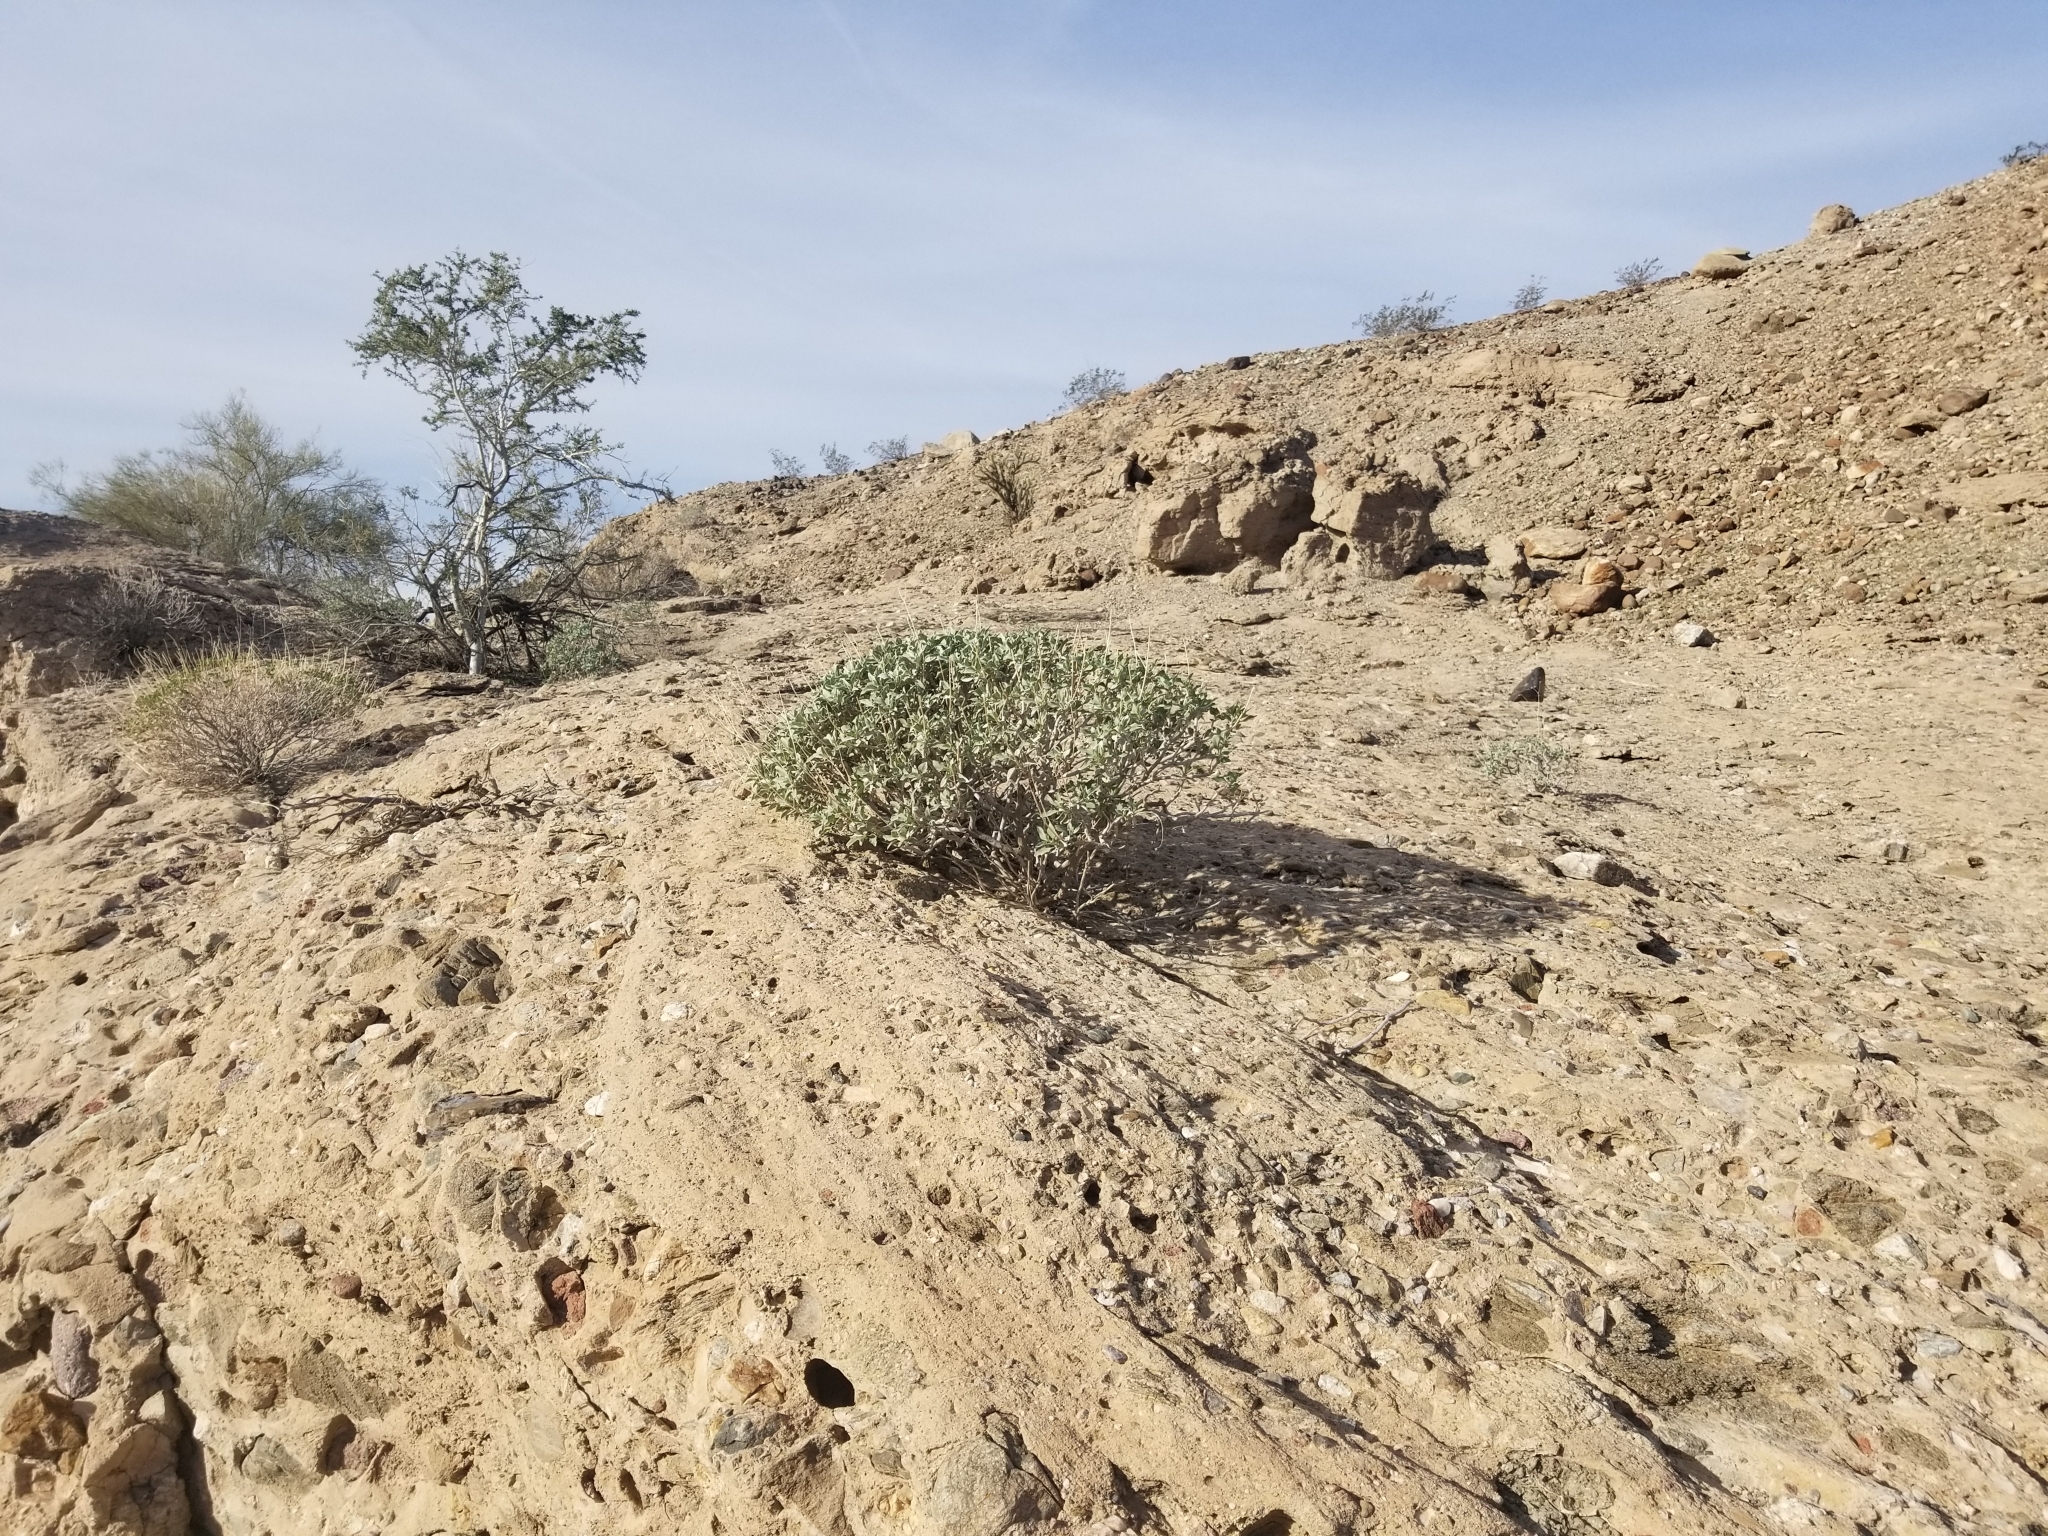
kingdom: Plantae
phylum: Tracheophyta
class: Magnoliopsida
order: Asterales
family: Asteraceae
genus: Encelia
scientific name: Encelia farinosa
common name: Brittlebush
